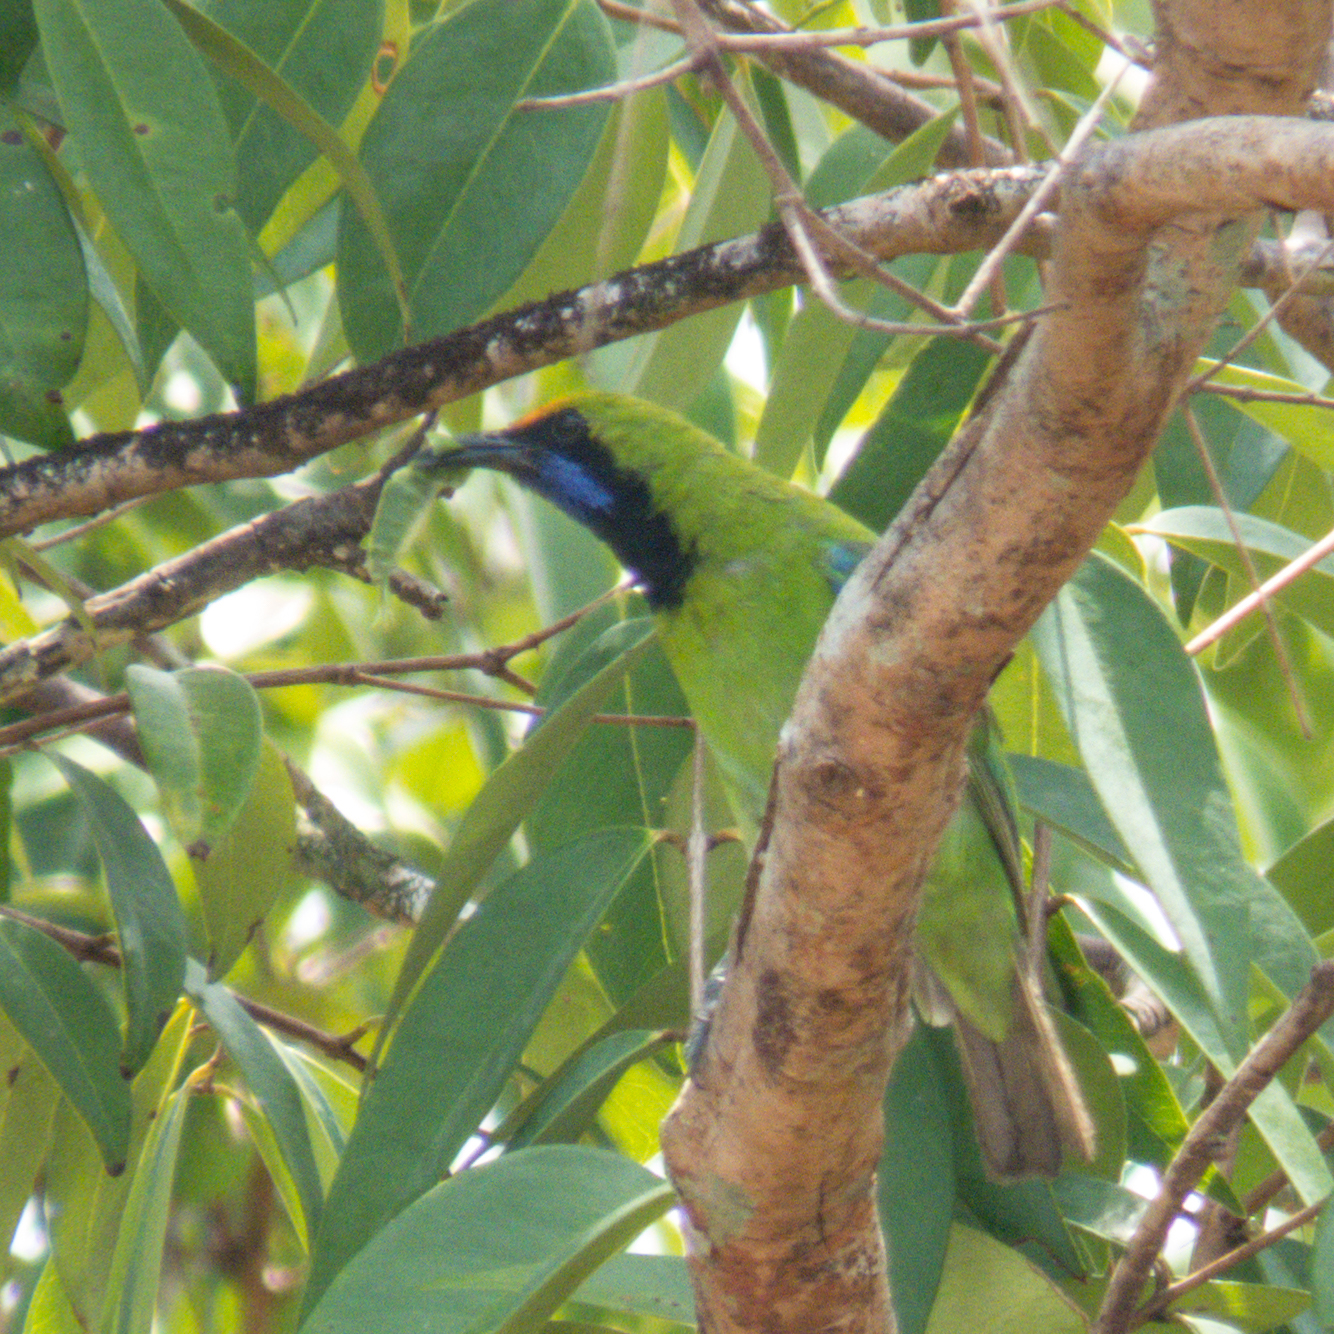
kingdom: Animalia
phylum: Chordata
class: Aves
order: Passeriformes
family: Chloropseidae
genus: Chloropsis
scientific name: Chloropsis aurifrons
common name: Golden-fronted leafbird
